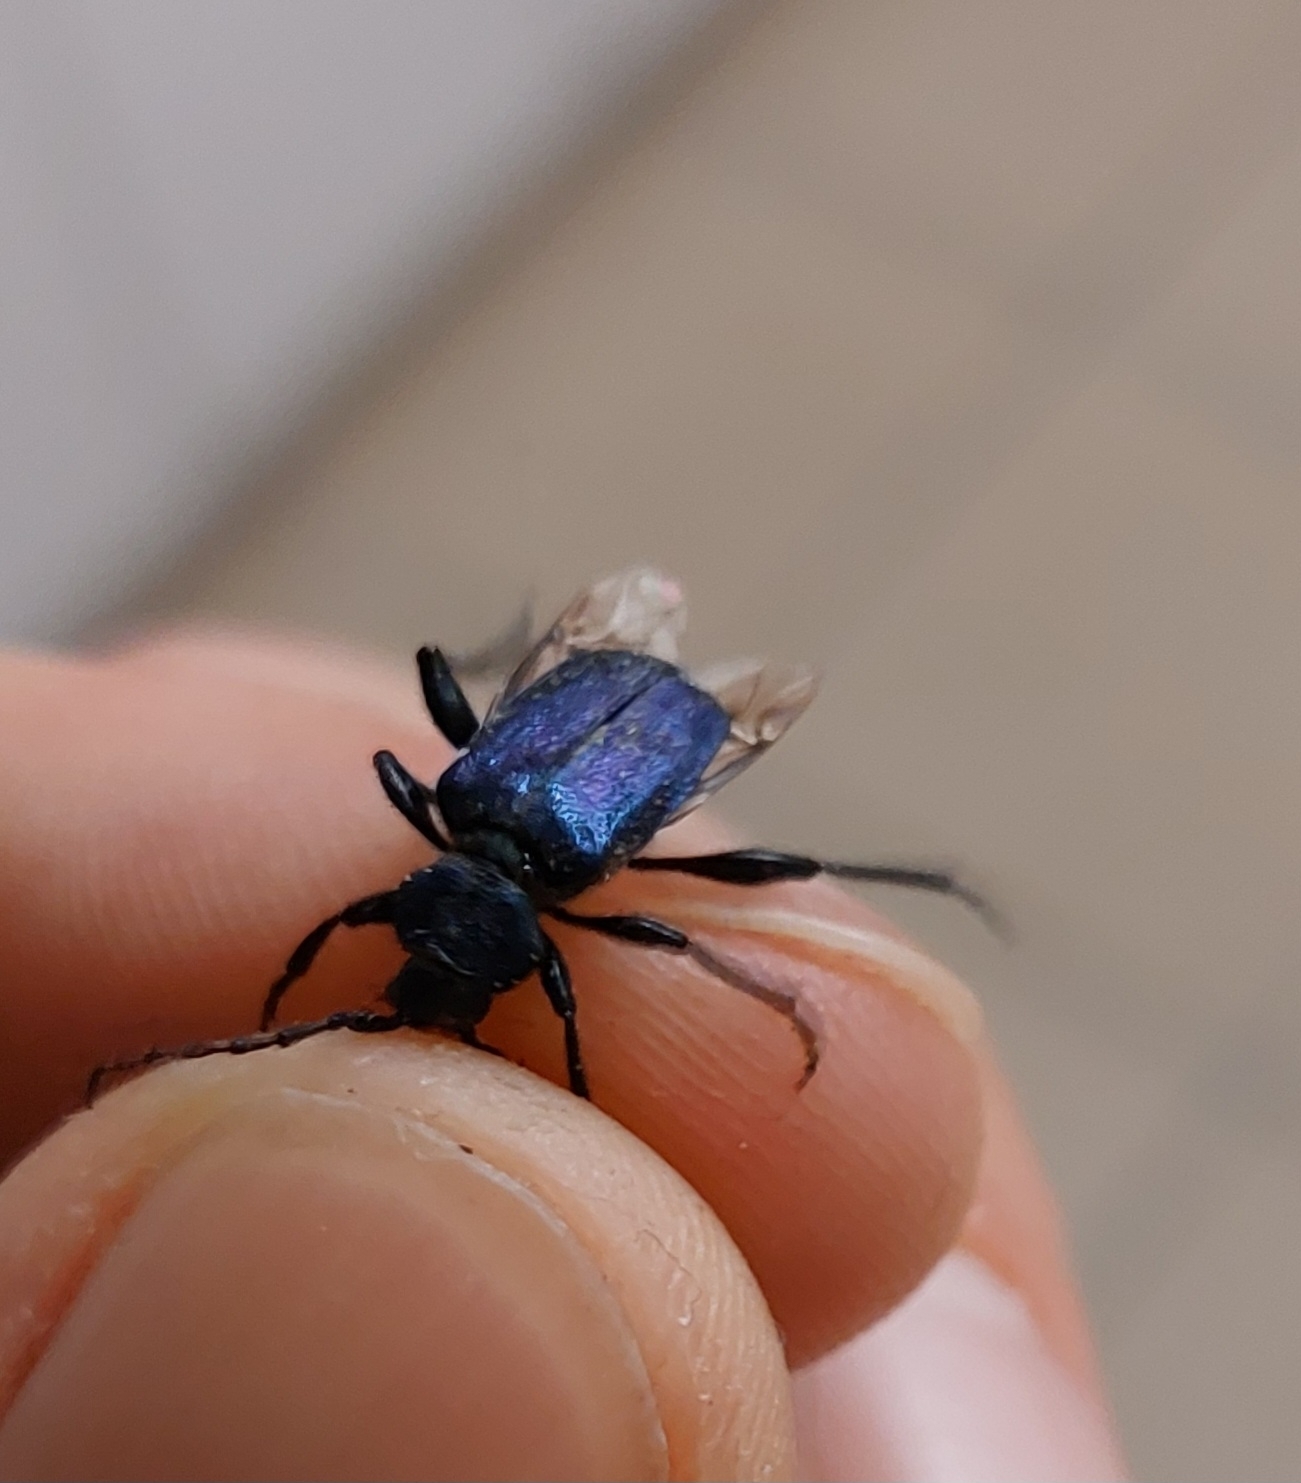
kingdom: Animalia
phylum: Arthropoda
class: Insecta
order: Coleoptera
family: Cerambycidae
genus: Callidium
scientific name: Callidium violaceum
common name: Violet tanbark beetle
